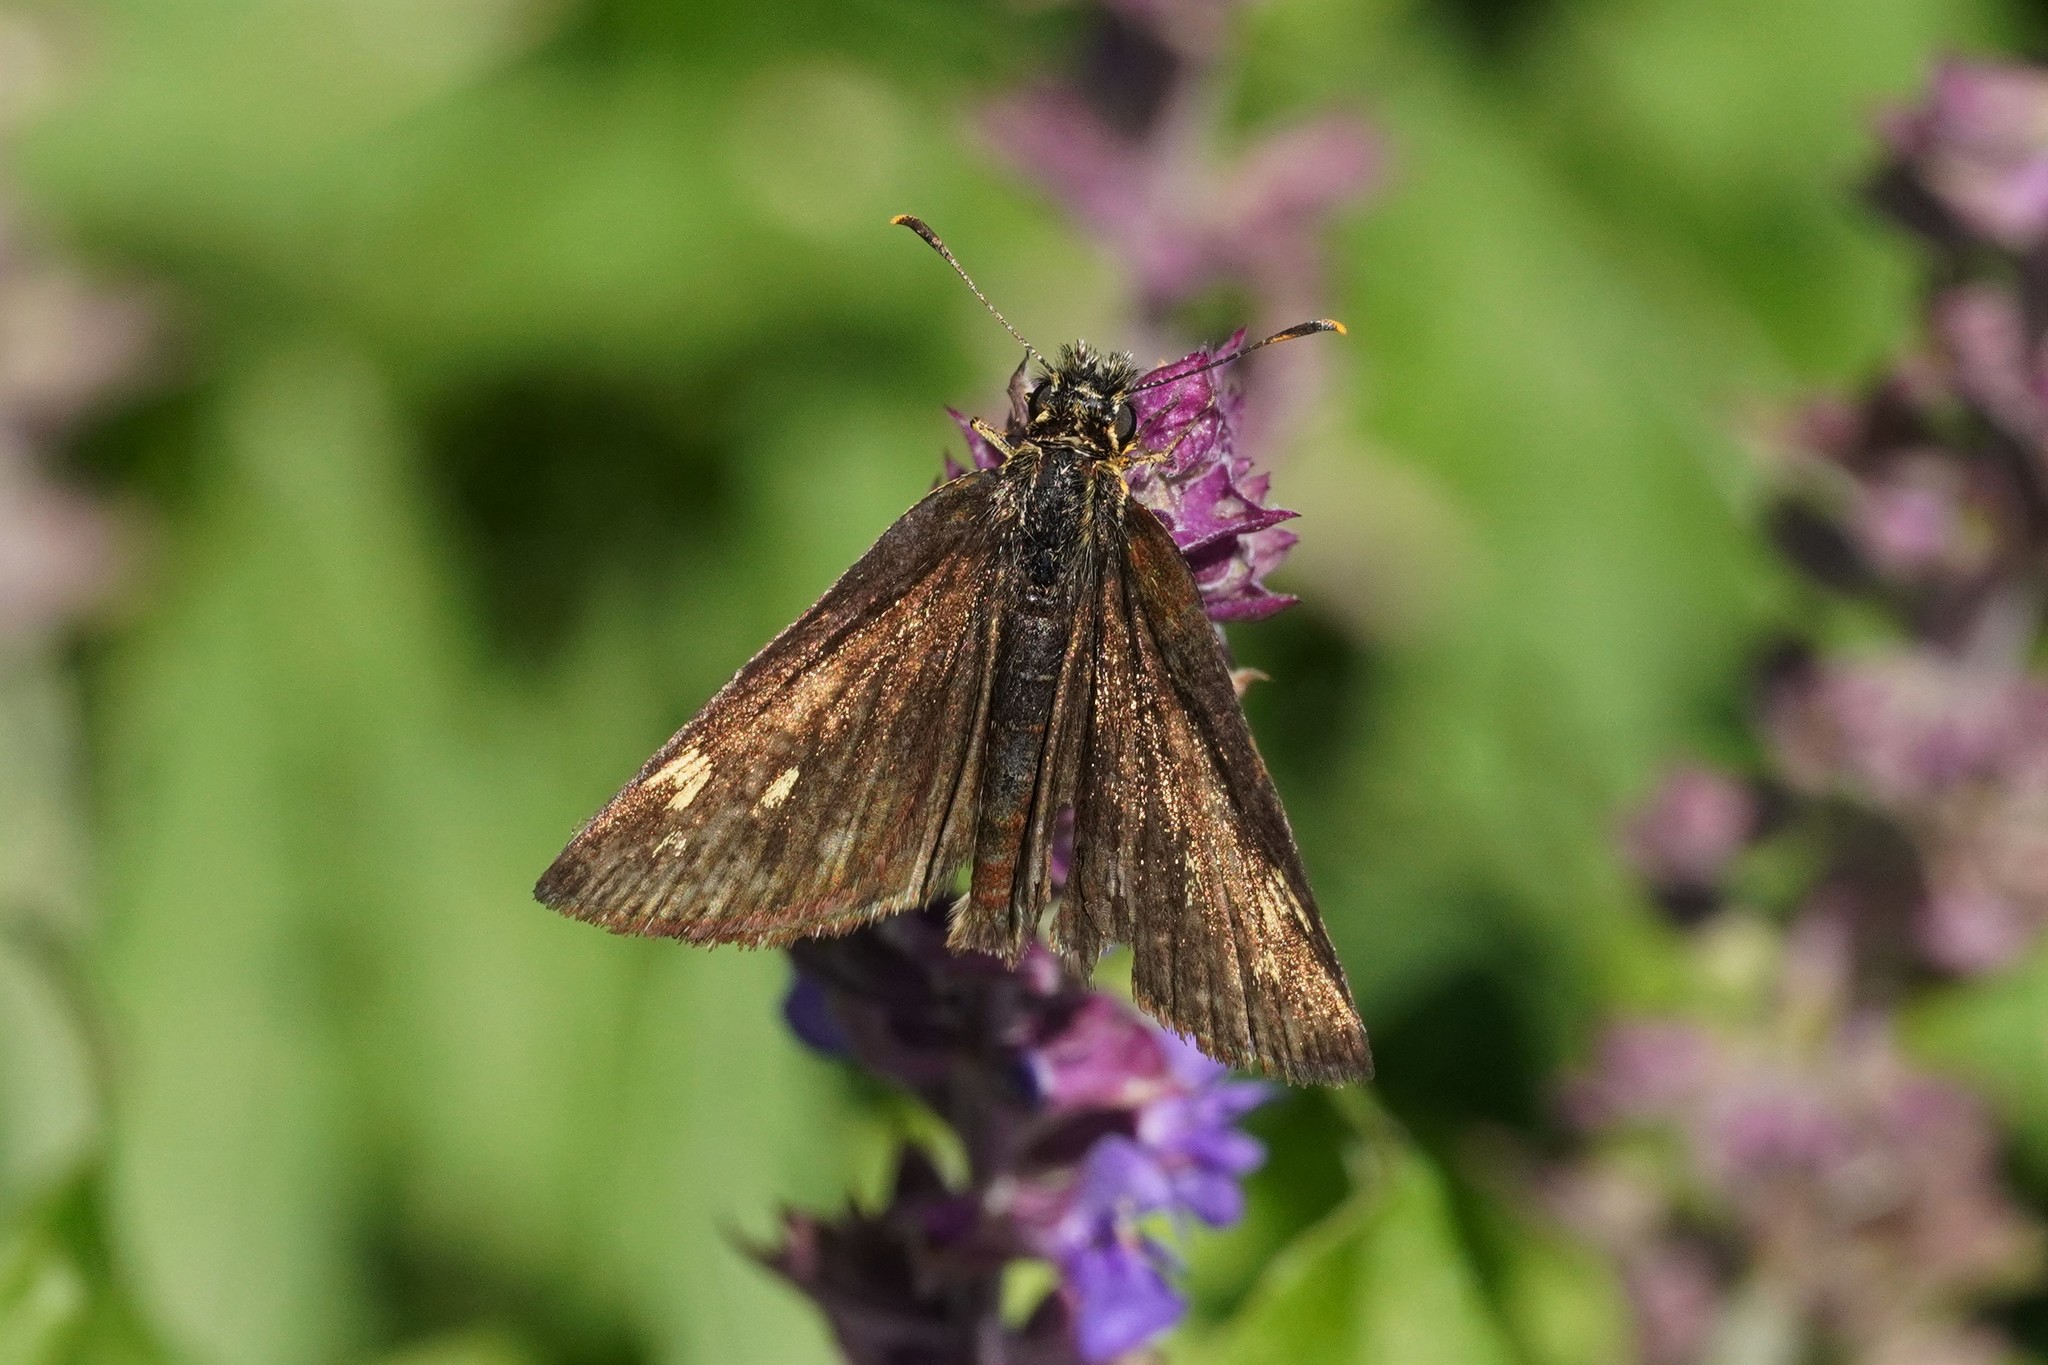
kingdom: Animalia
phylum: Arthropoda
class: Insecta
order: Lepidoptera
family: Hesperiidae
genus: Heteropterus
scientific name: Heteropterus morpheus
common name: Large chequered skipper
